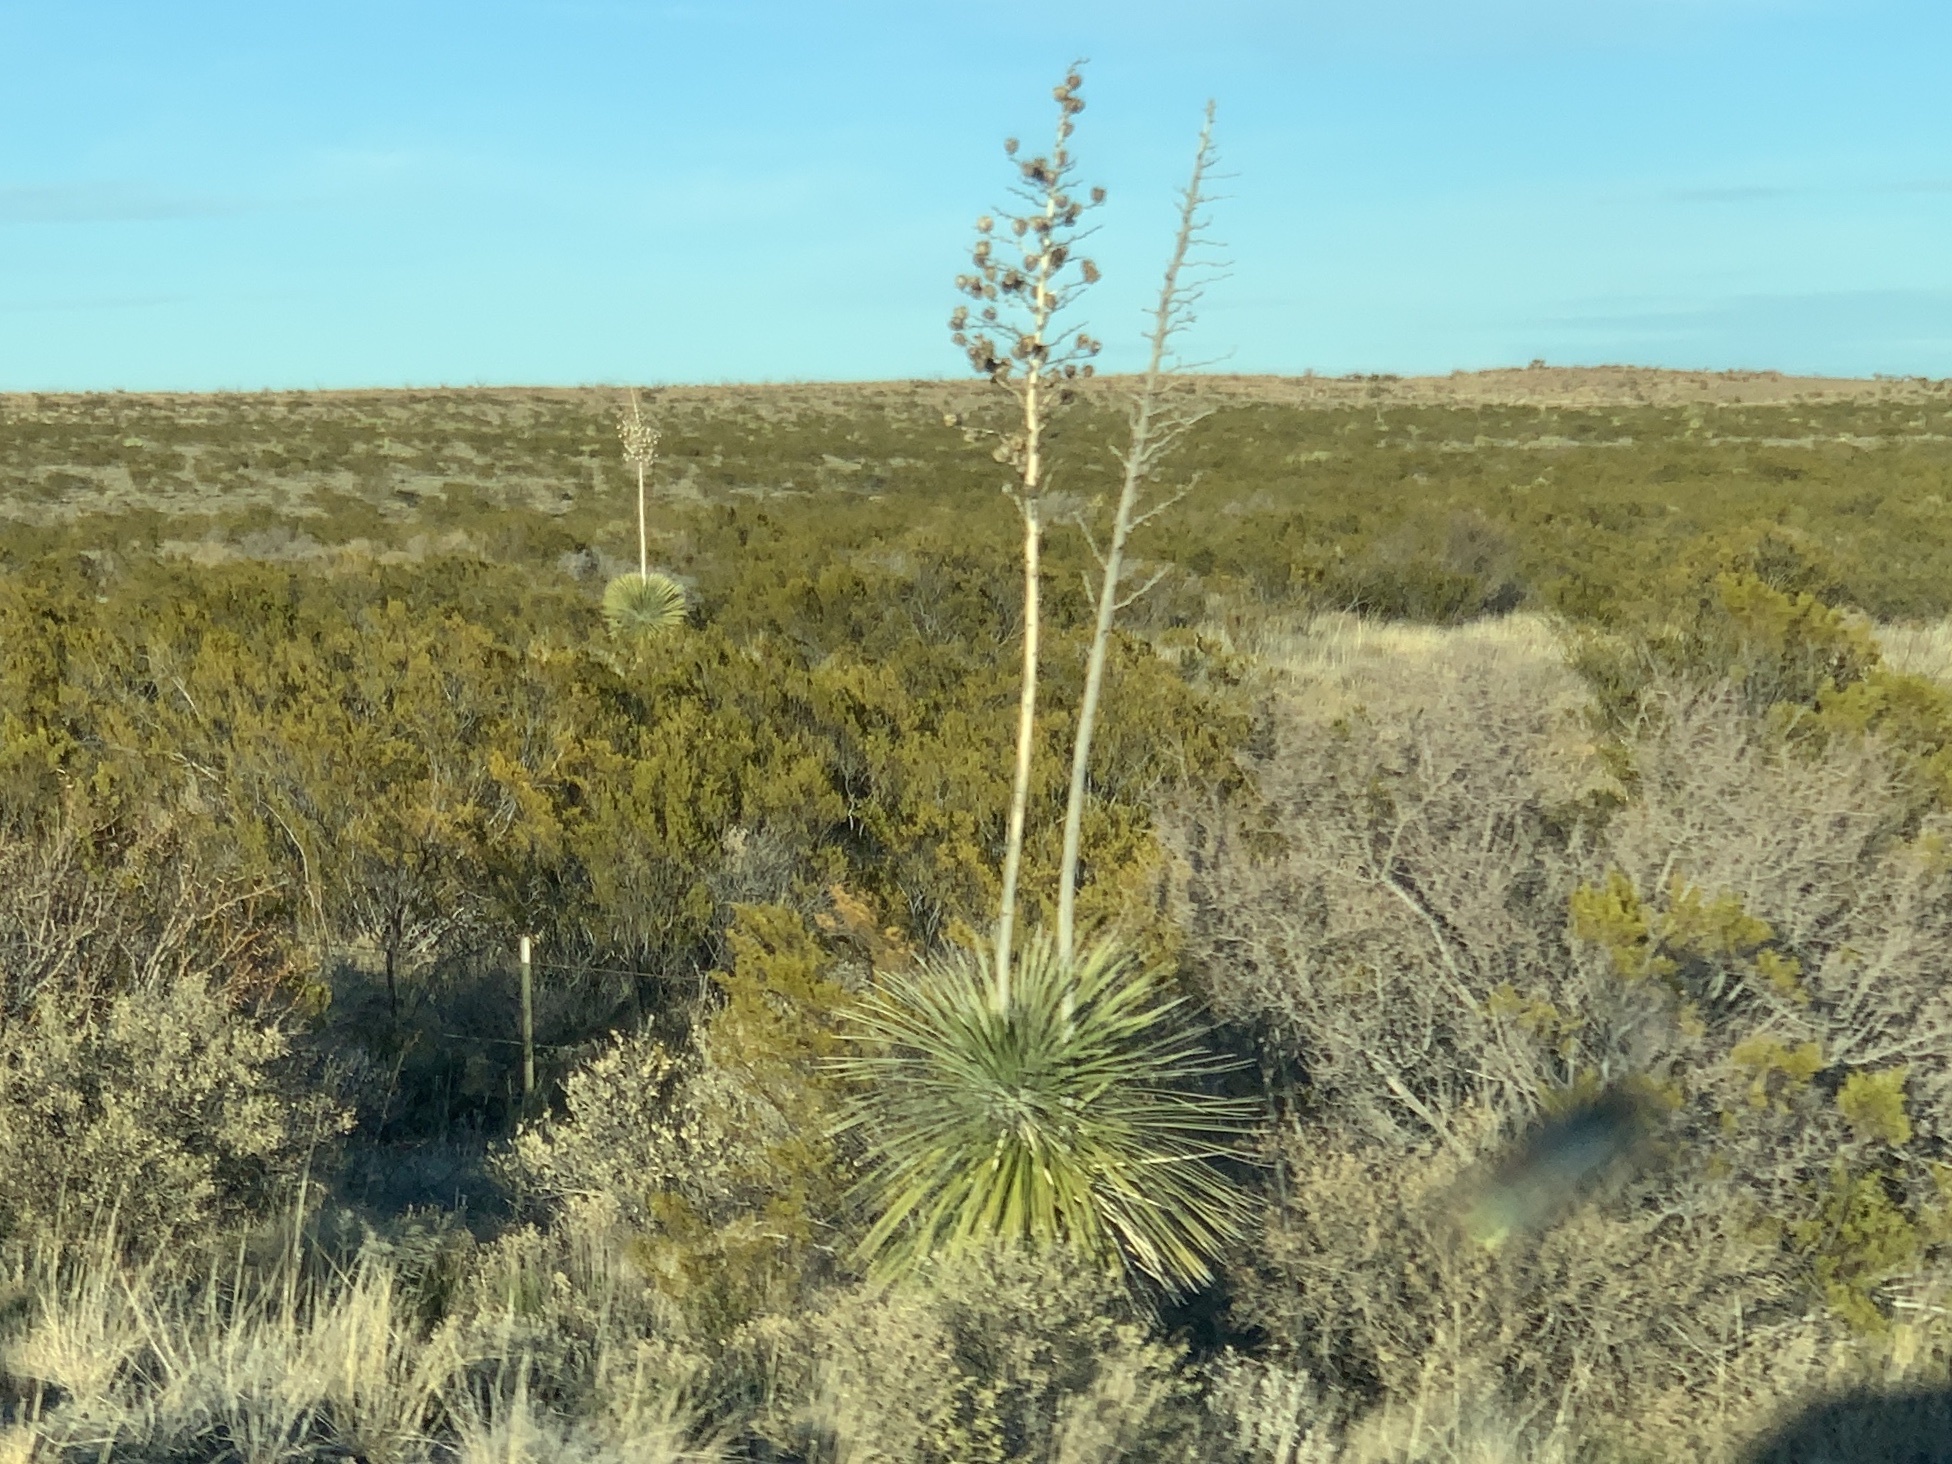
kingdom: Plantae
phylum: Tracheophyta
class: Liliopsida
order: Asparagales
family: Asparagaceae
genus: Yucca
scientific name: Yucca elata
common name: Palmella
